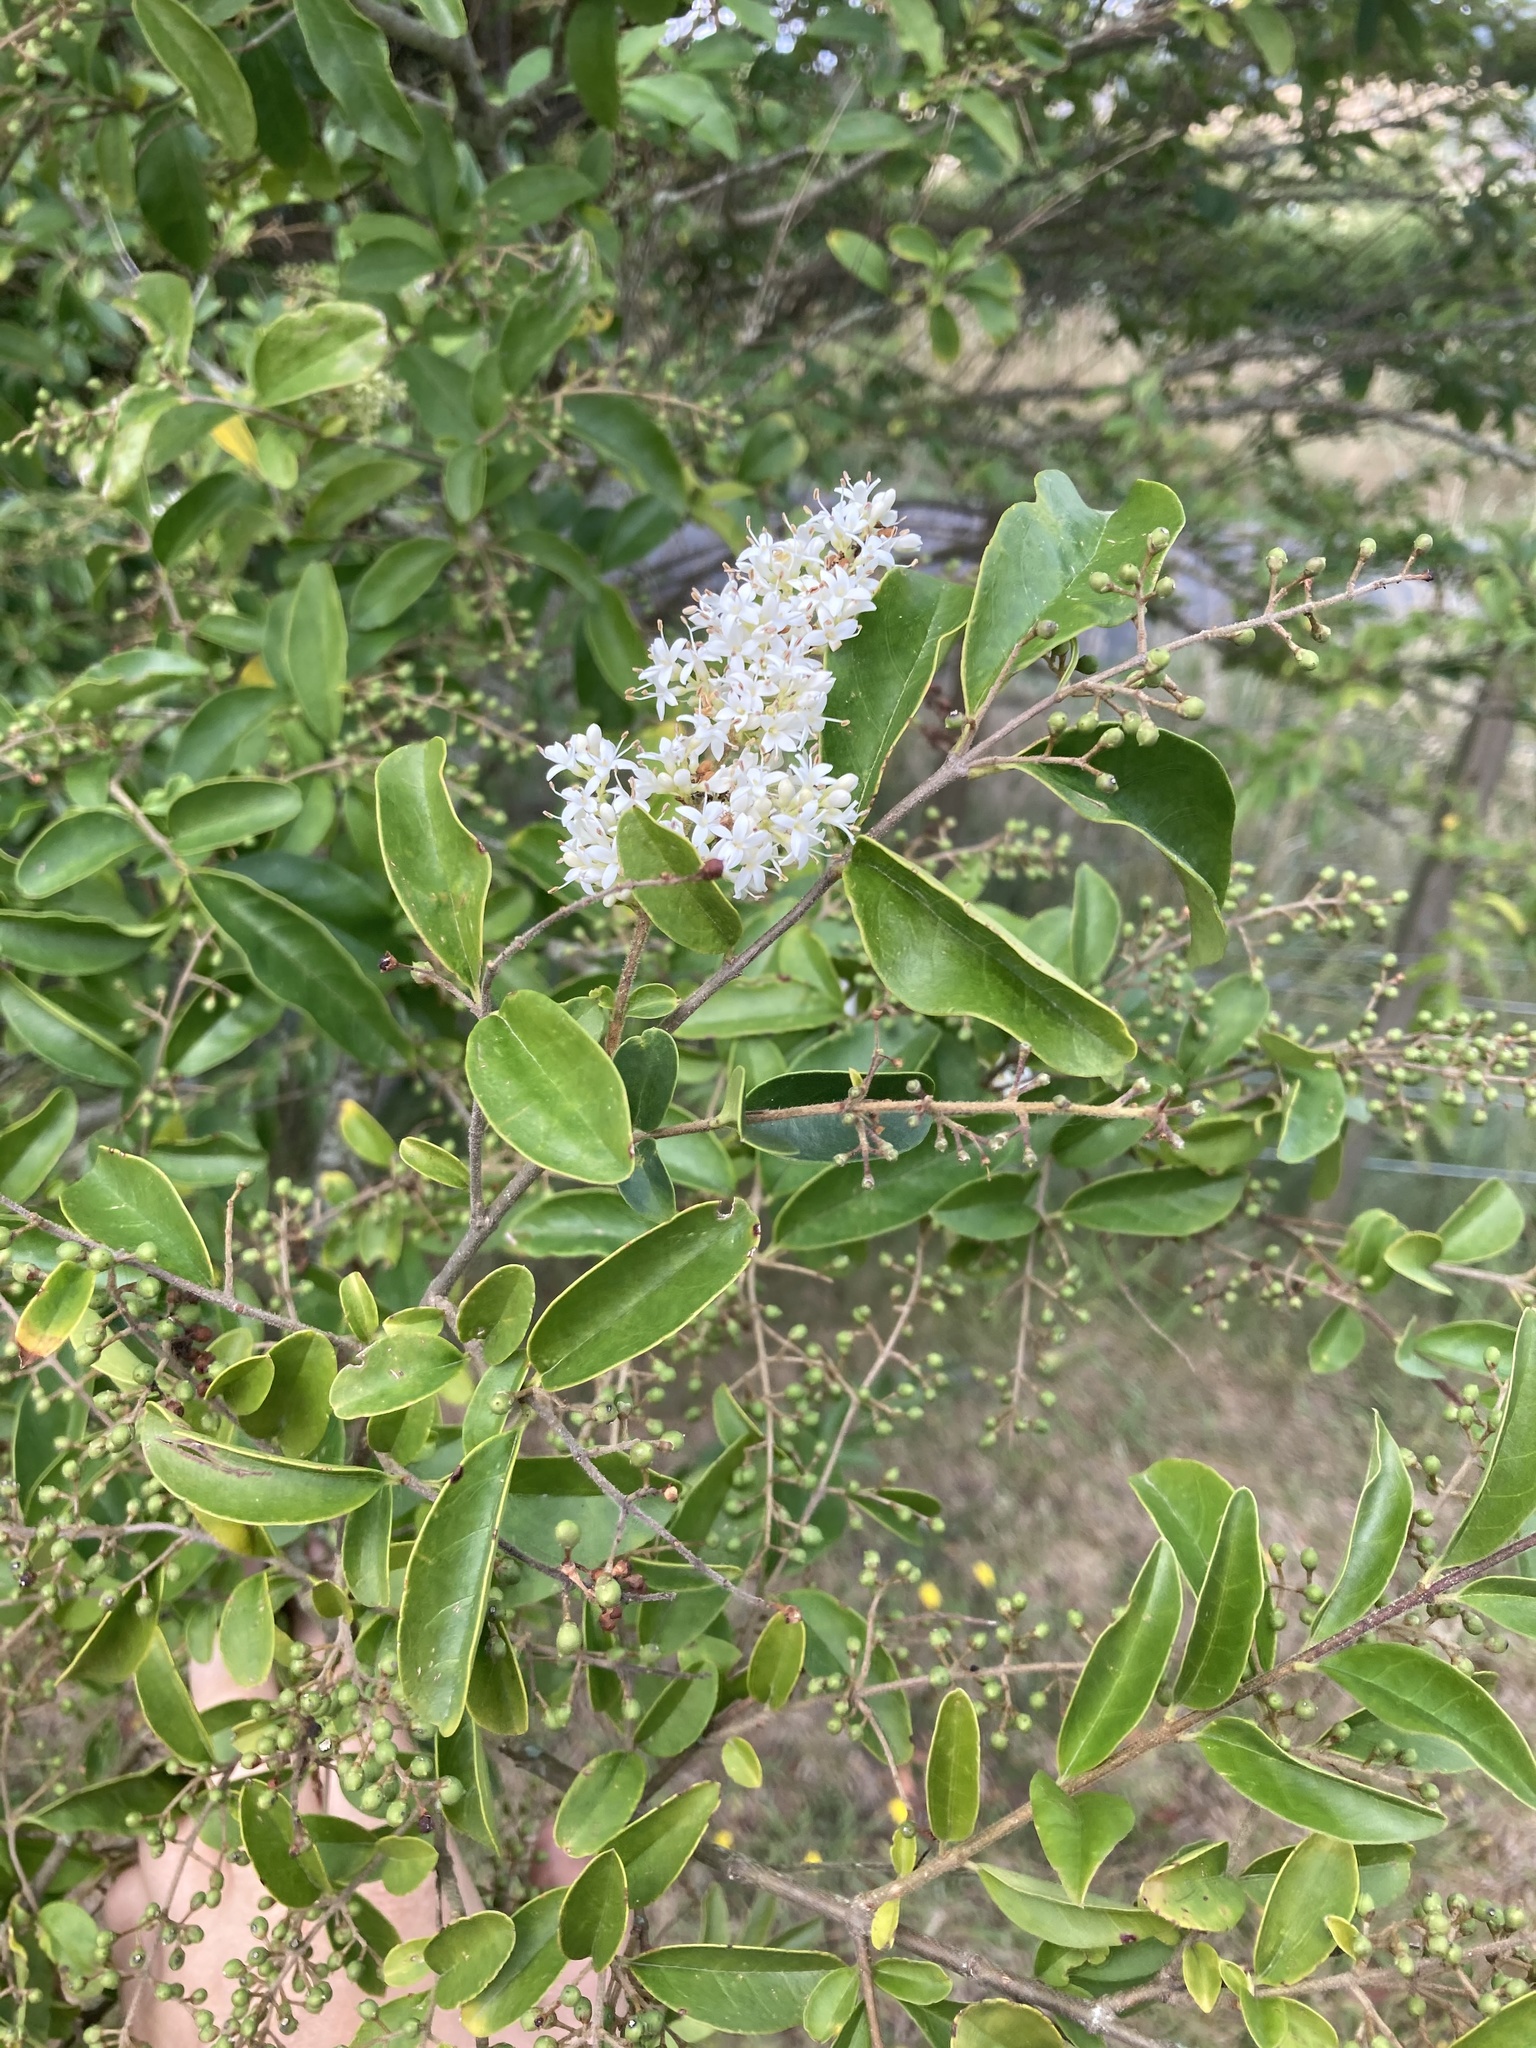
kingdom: Plantae
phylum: Tracheophyta
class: Magnoliopsida
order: Lamiales
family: Oleaceae
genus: Ligustrum
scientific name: Ligustrum sinense
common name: Chinese privet
